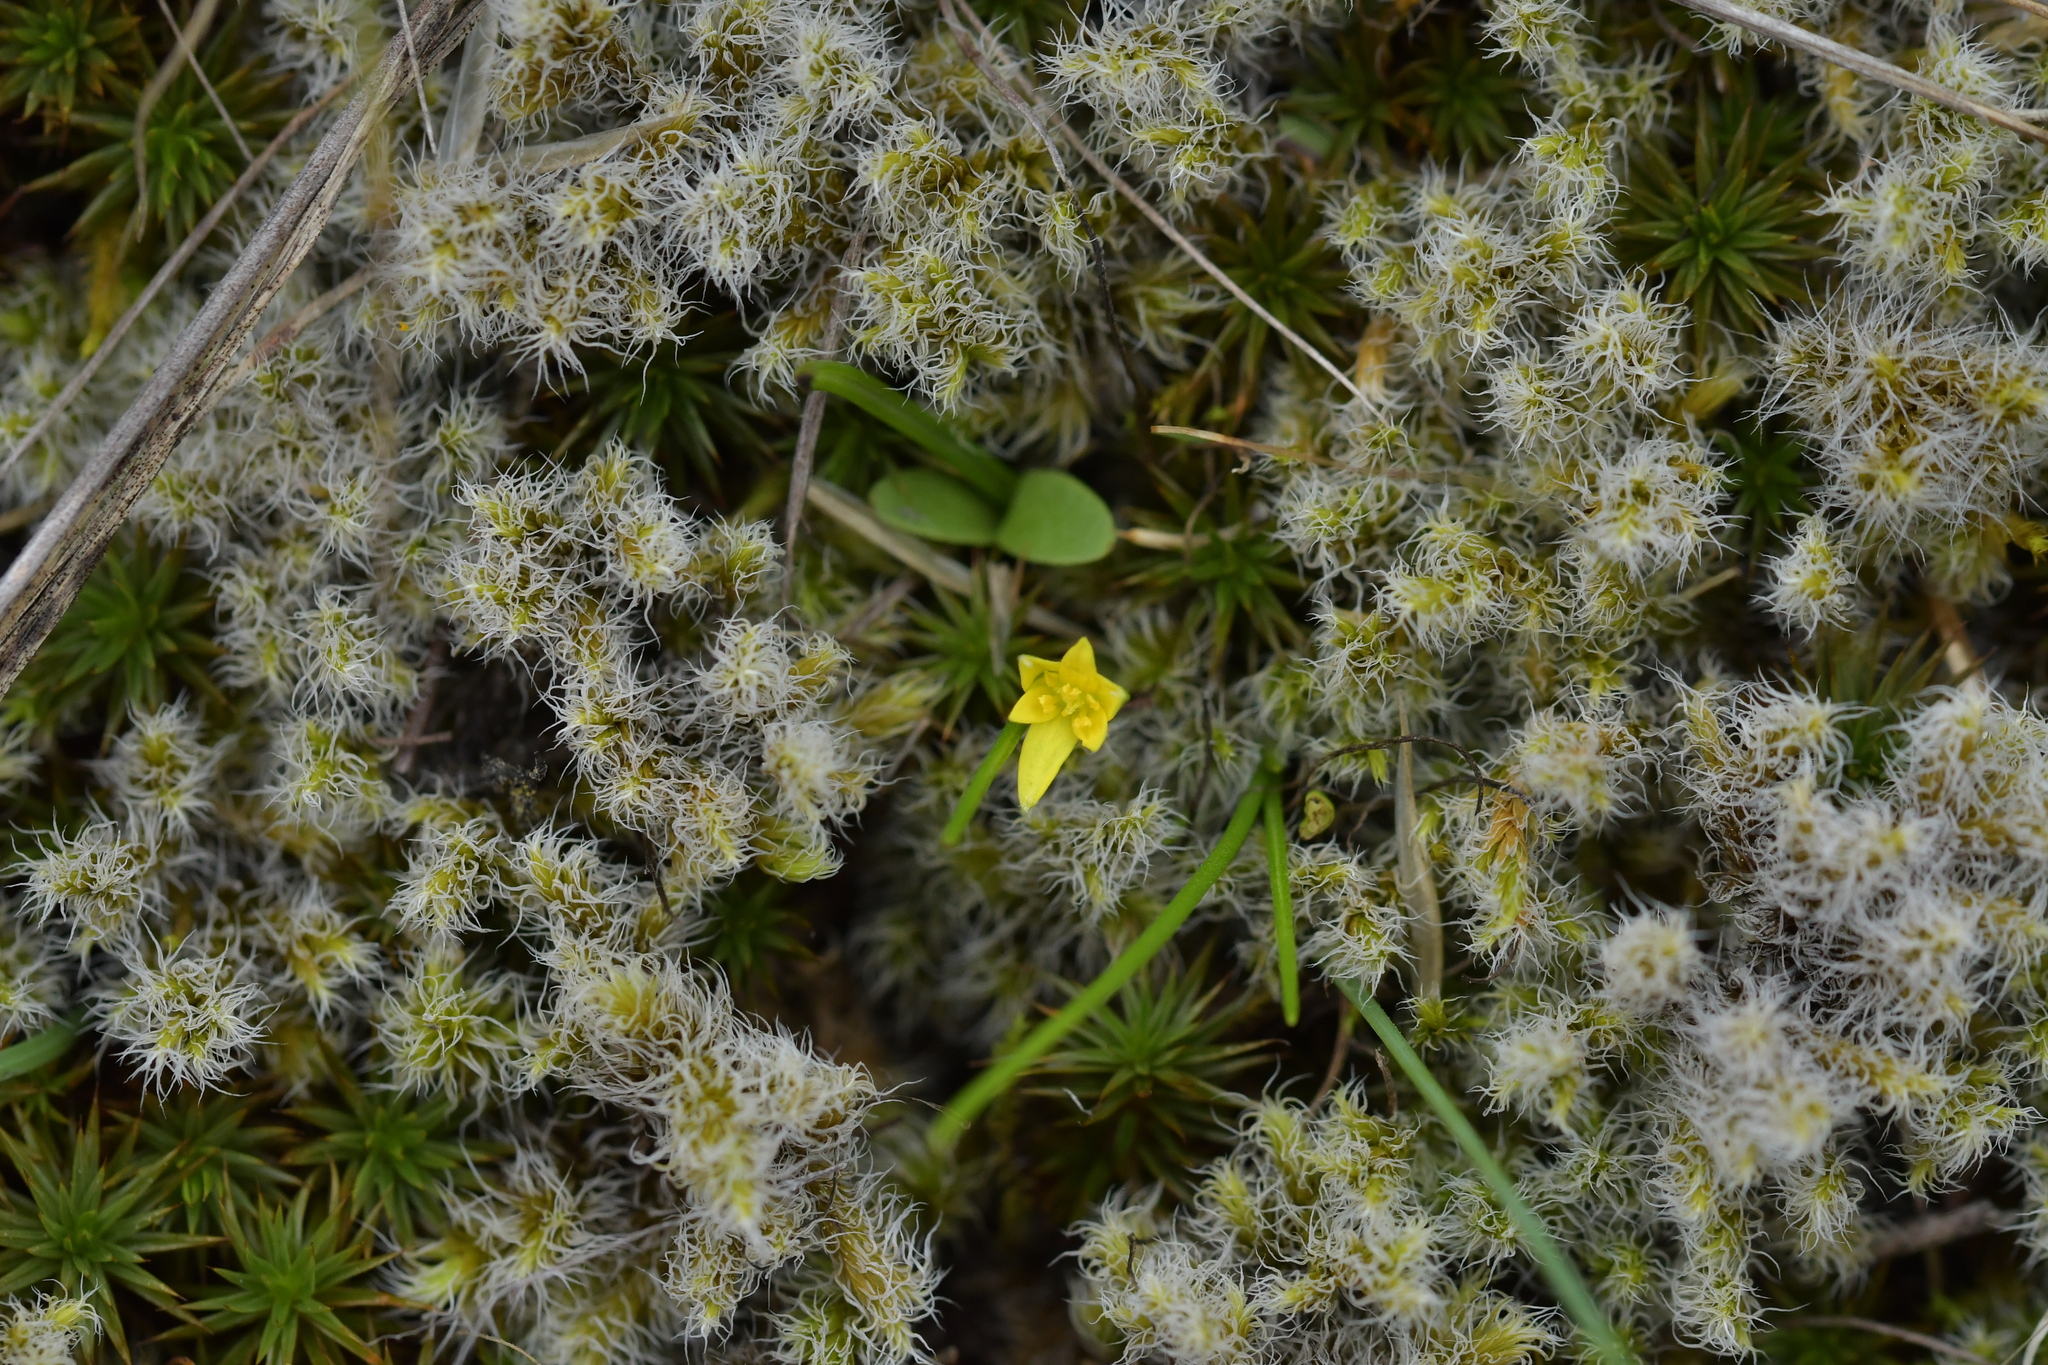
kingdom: Plantae
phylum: Tracheophyta
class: Liliopsida
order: Asparagales
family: Hypoxidaceae
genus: Pauridia
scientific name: Pauridia glabella
